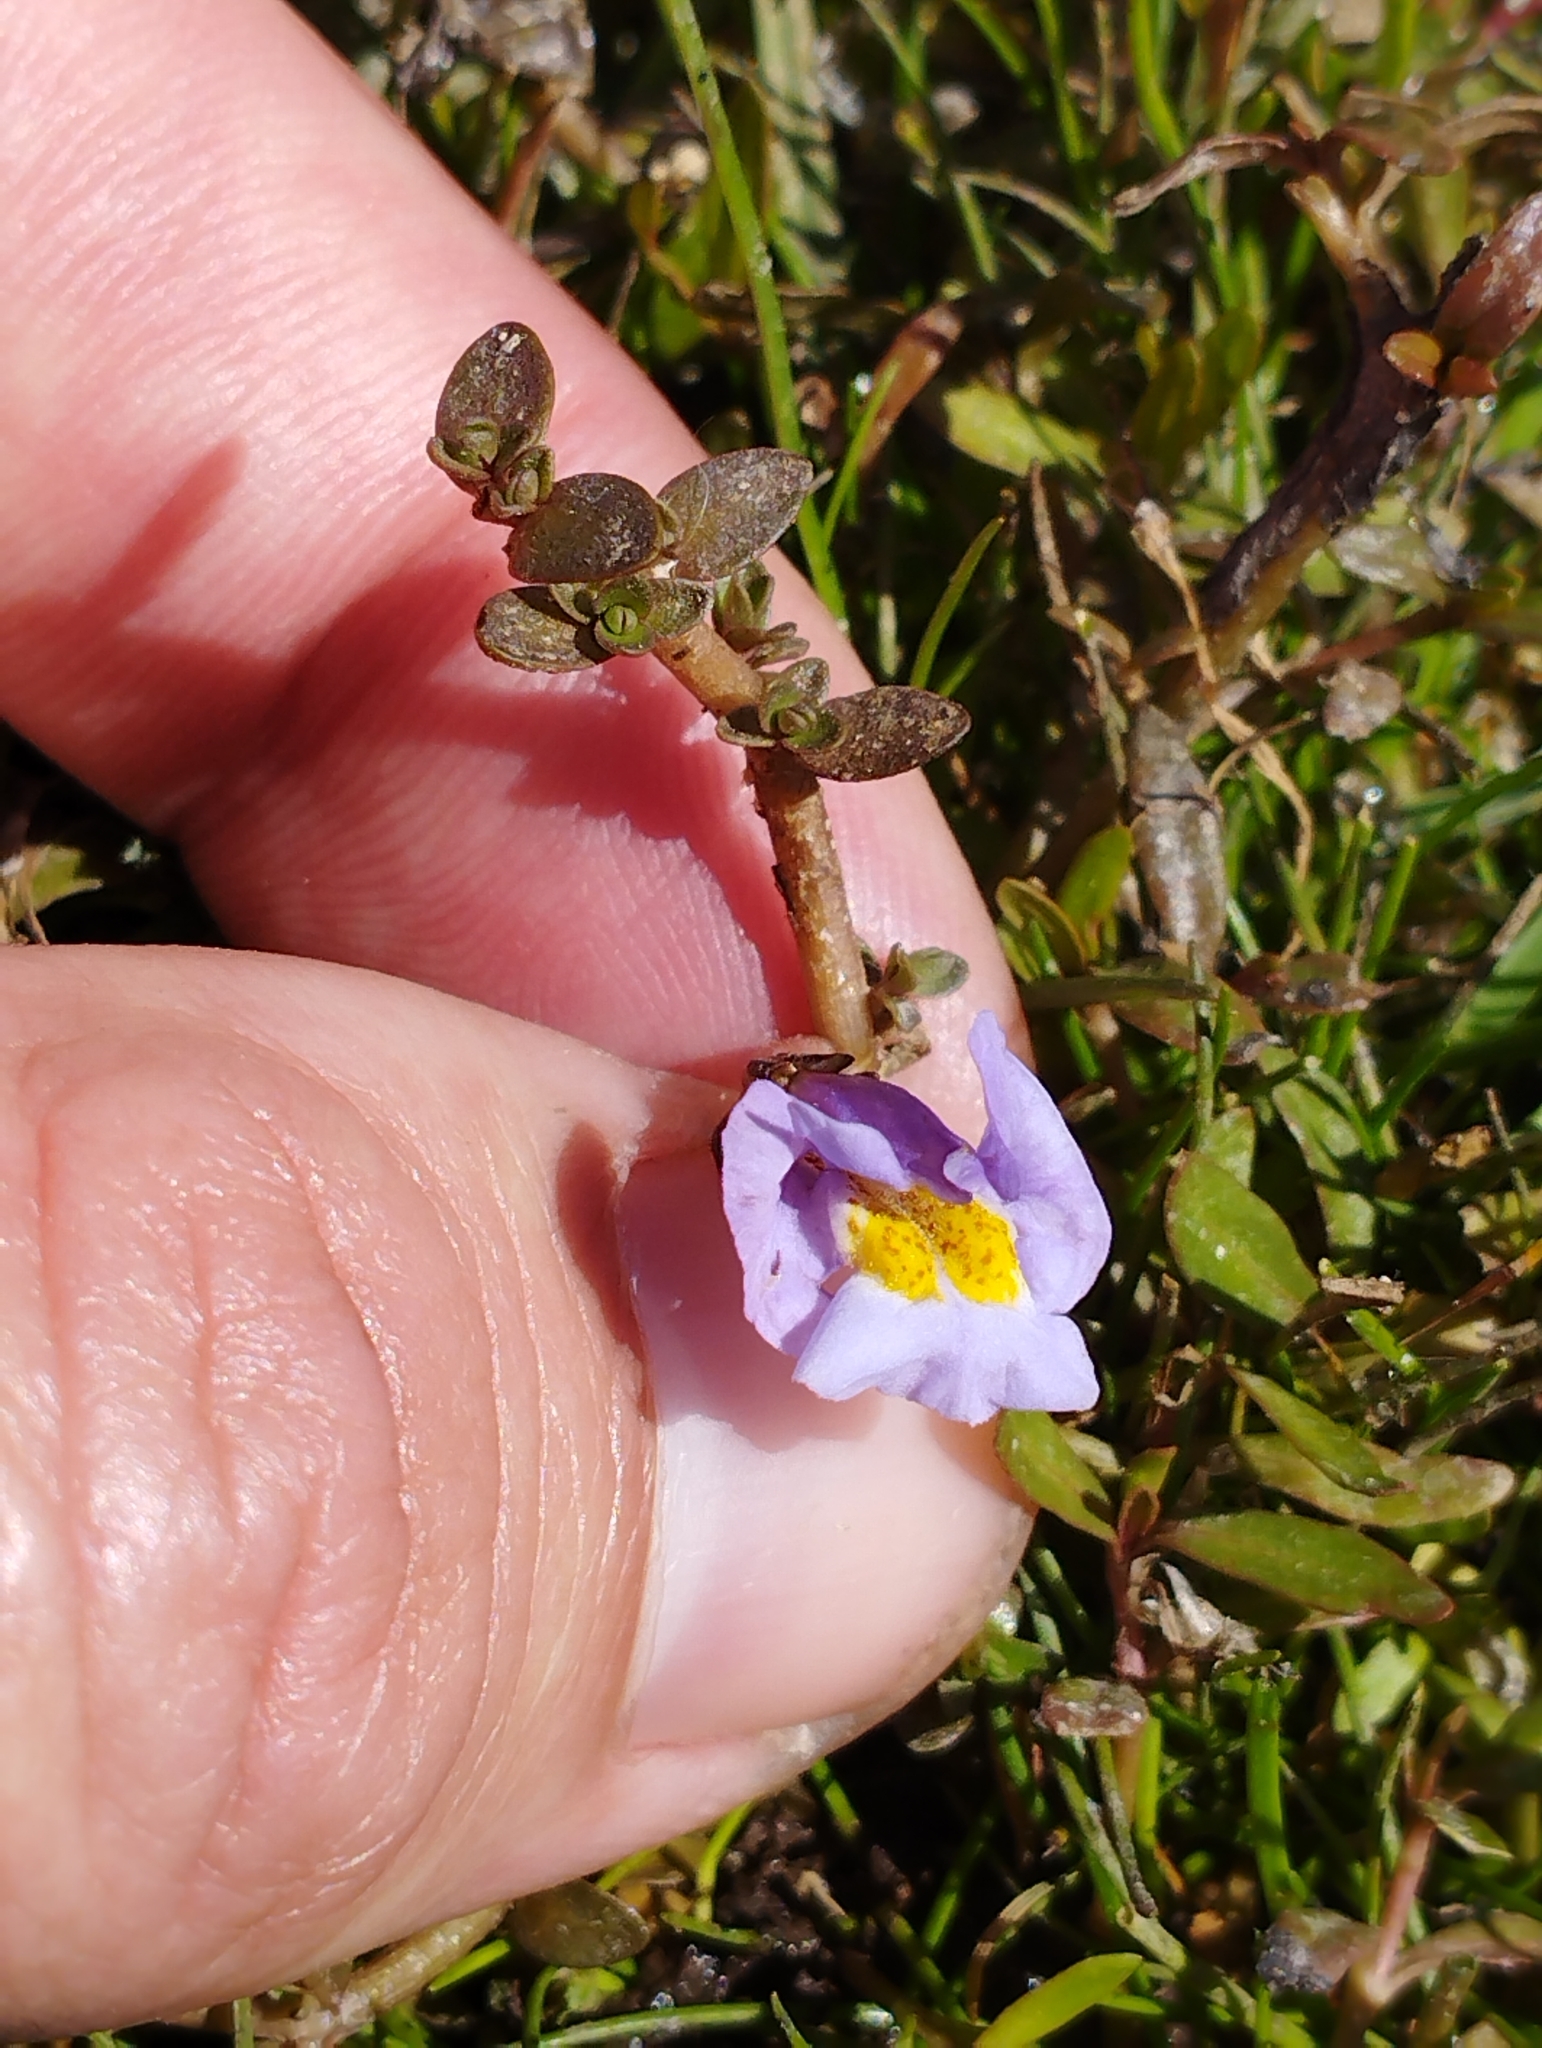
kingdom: Plantae
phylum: Tracheophyta
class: Magnoliopsida
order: Lamiales
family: Phrymaceae
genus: Thyridia
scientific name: Thyridia repens
